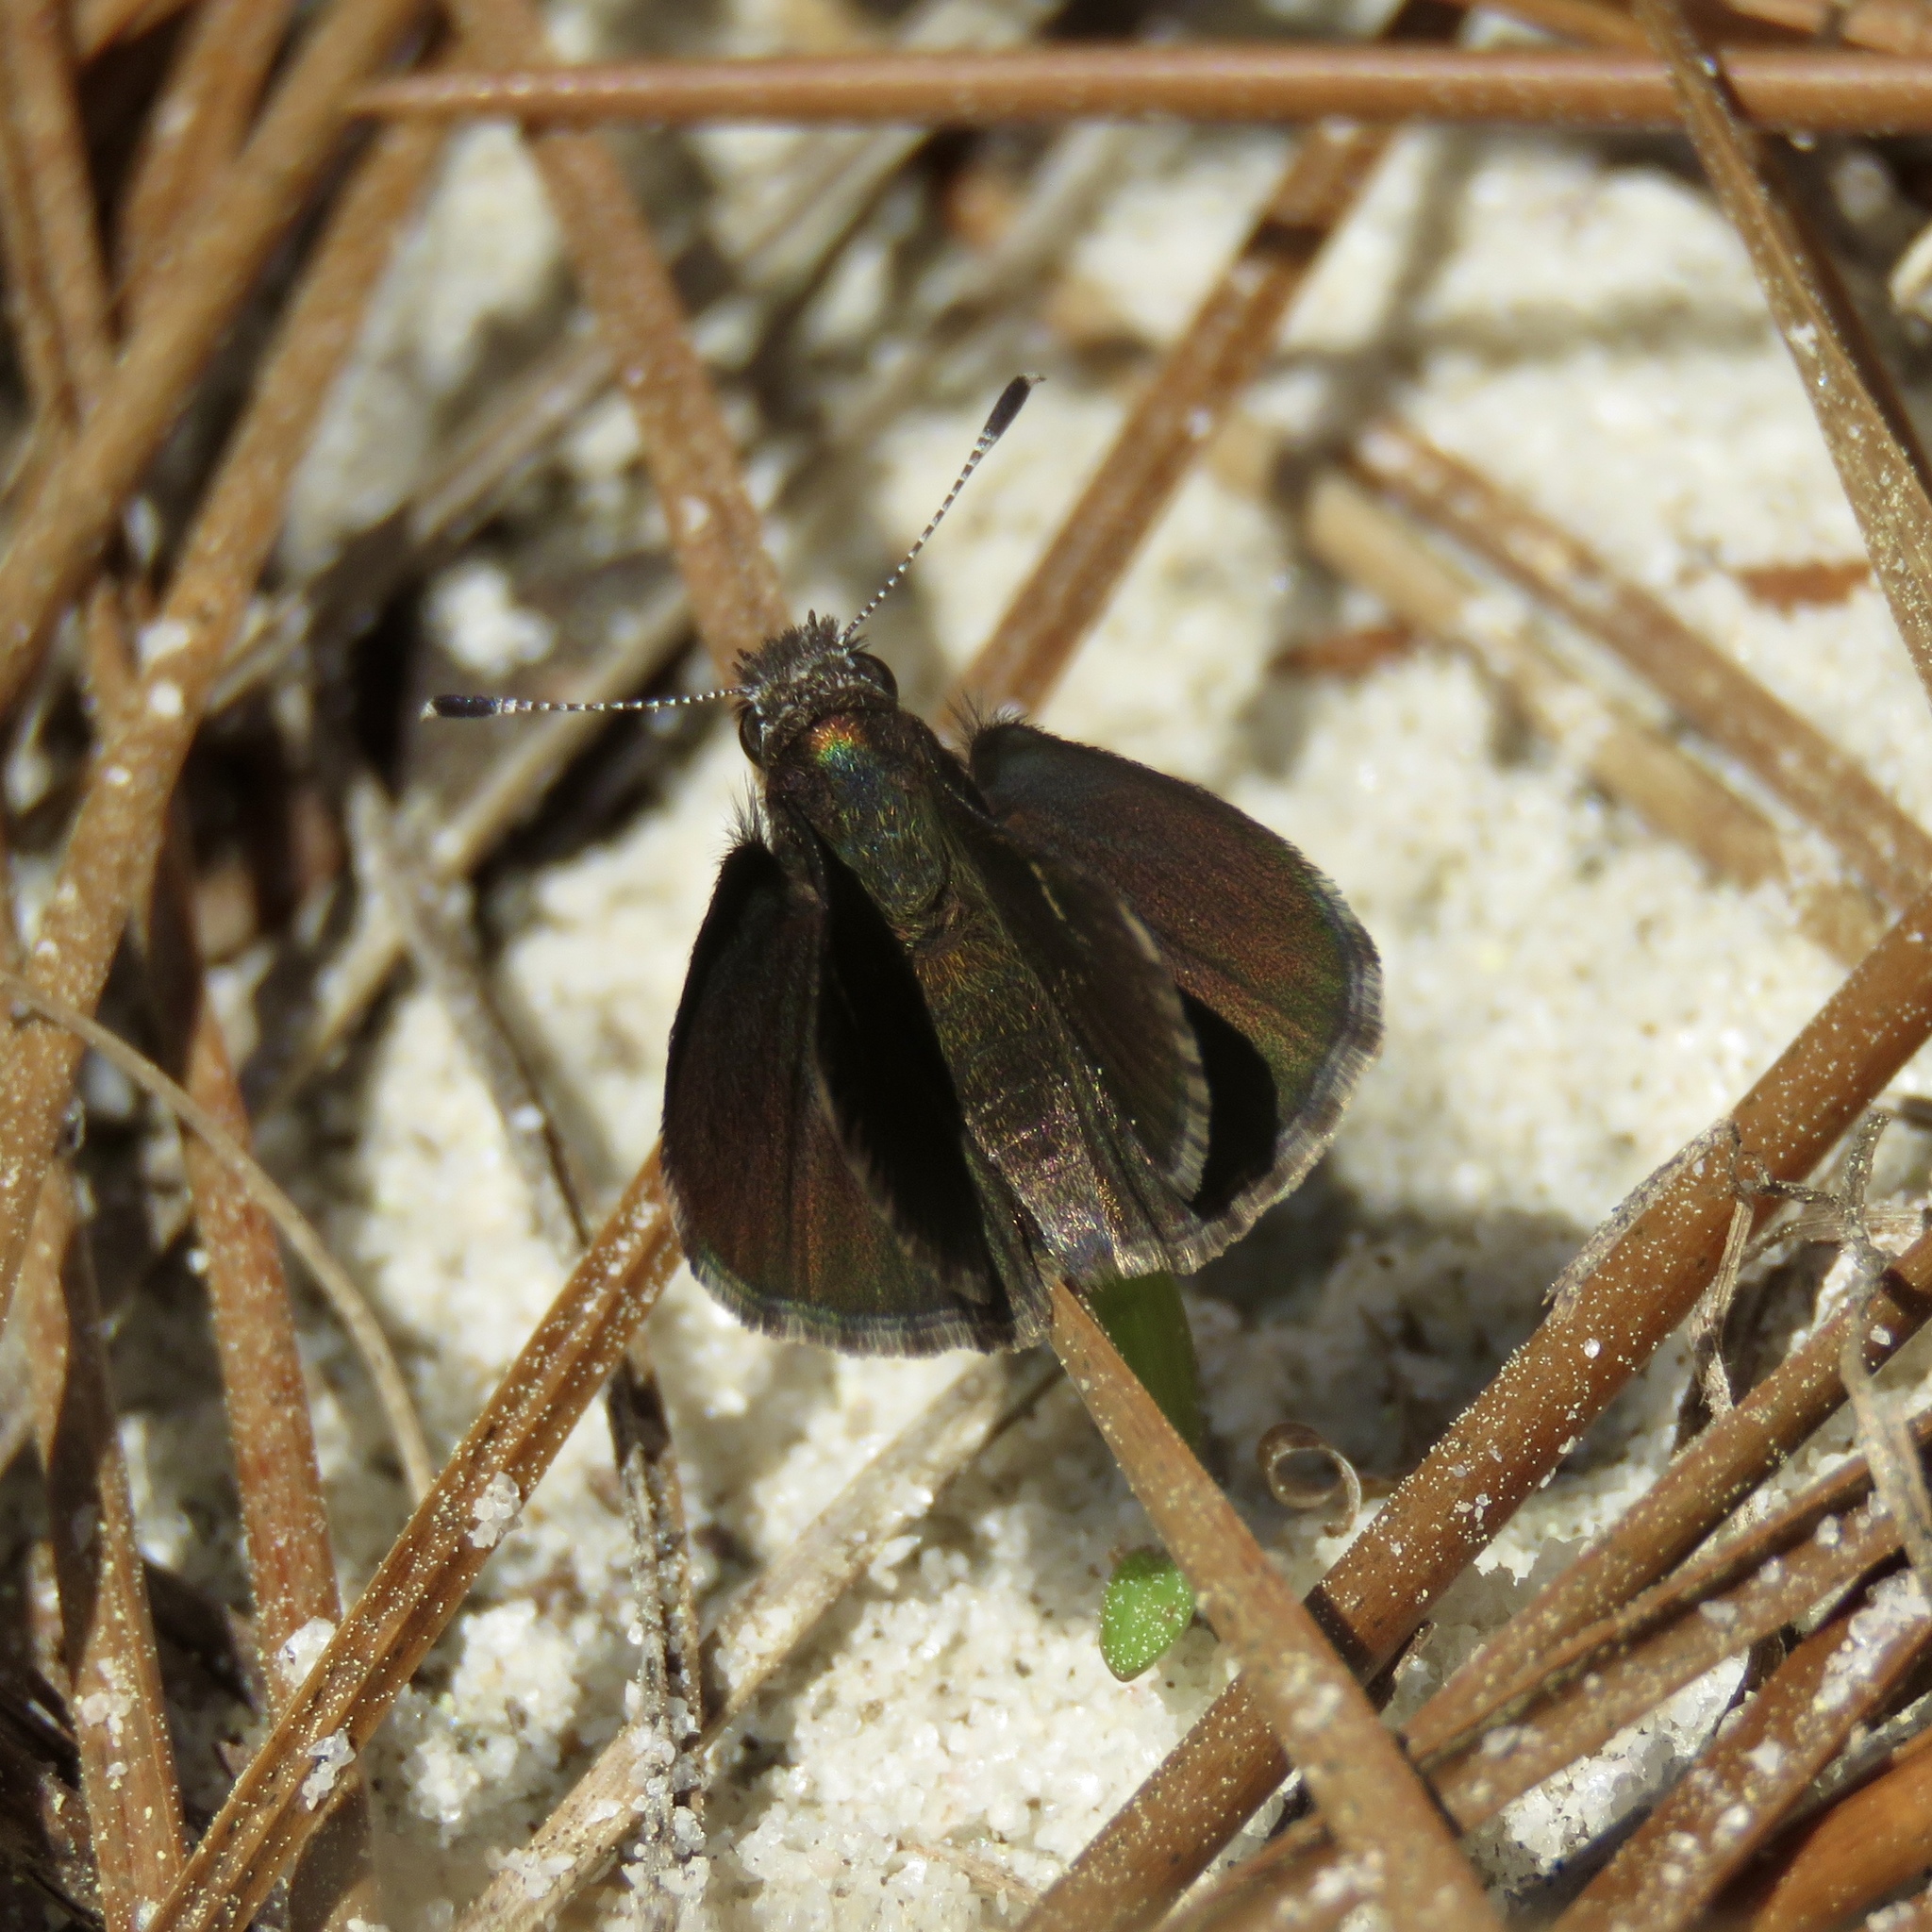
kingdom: Animalia
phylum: Arthropoda
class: Insecta
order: Lepidoptera
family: Hesperiidae
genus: Mastor
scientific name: Mastor alternata
